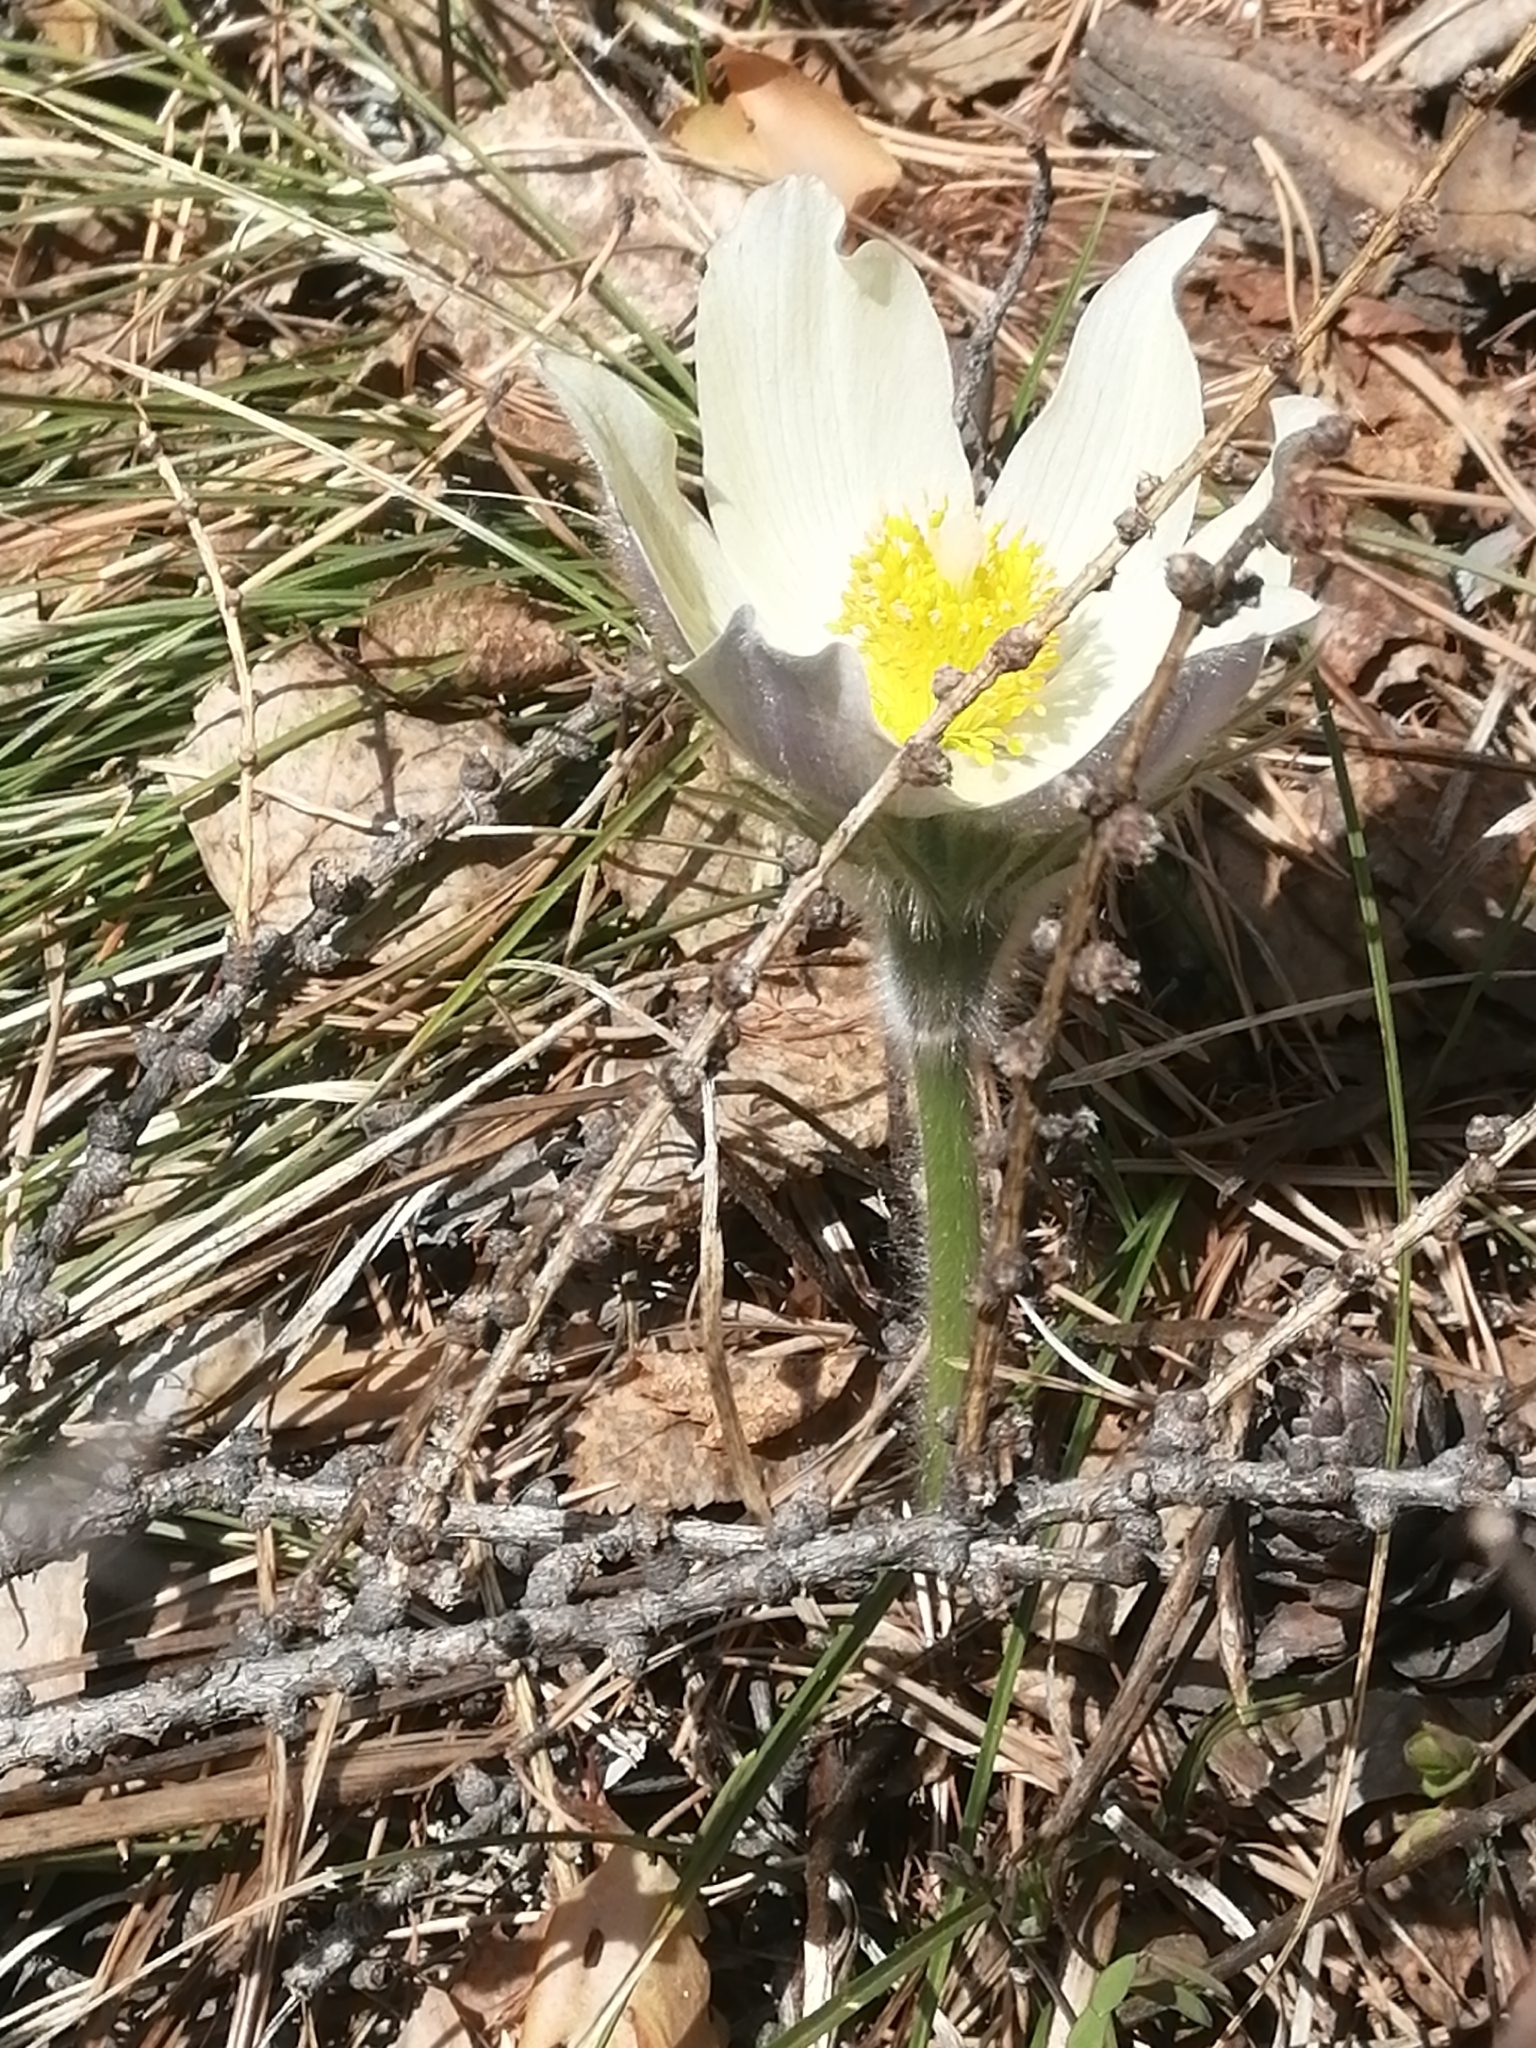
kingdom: Plantae
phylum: Tracheophyta
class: Magnoliopsida
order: Ranunculales
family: Ranunculaceae
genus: Pulsatilla
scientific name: Pulsatilla patens
